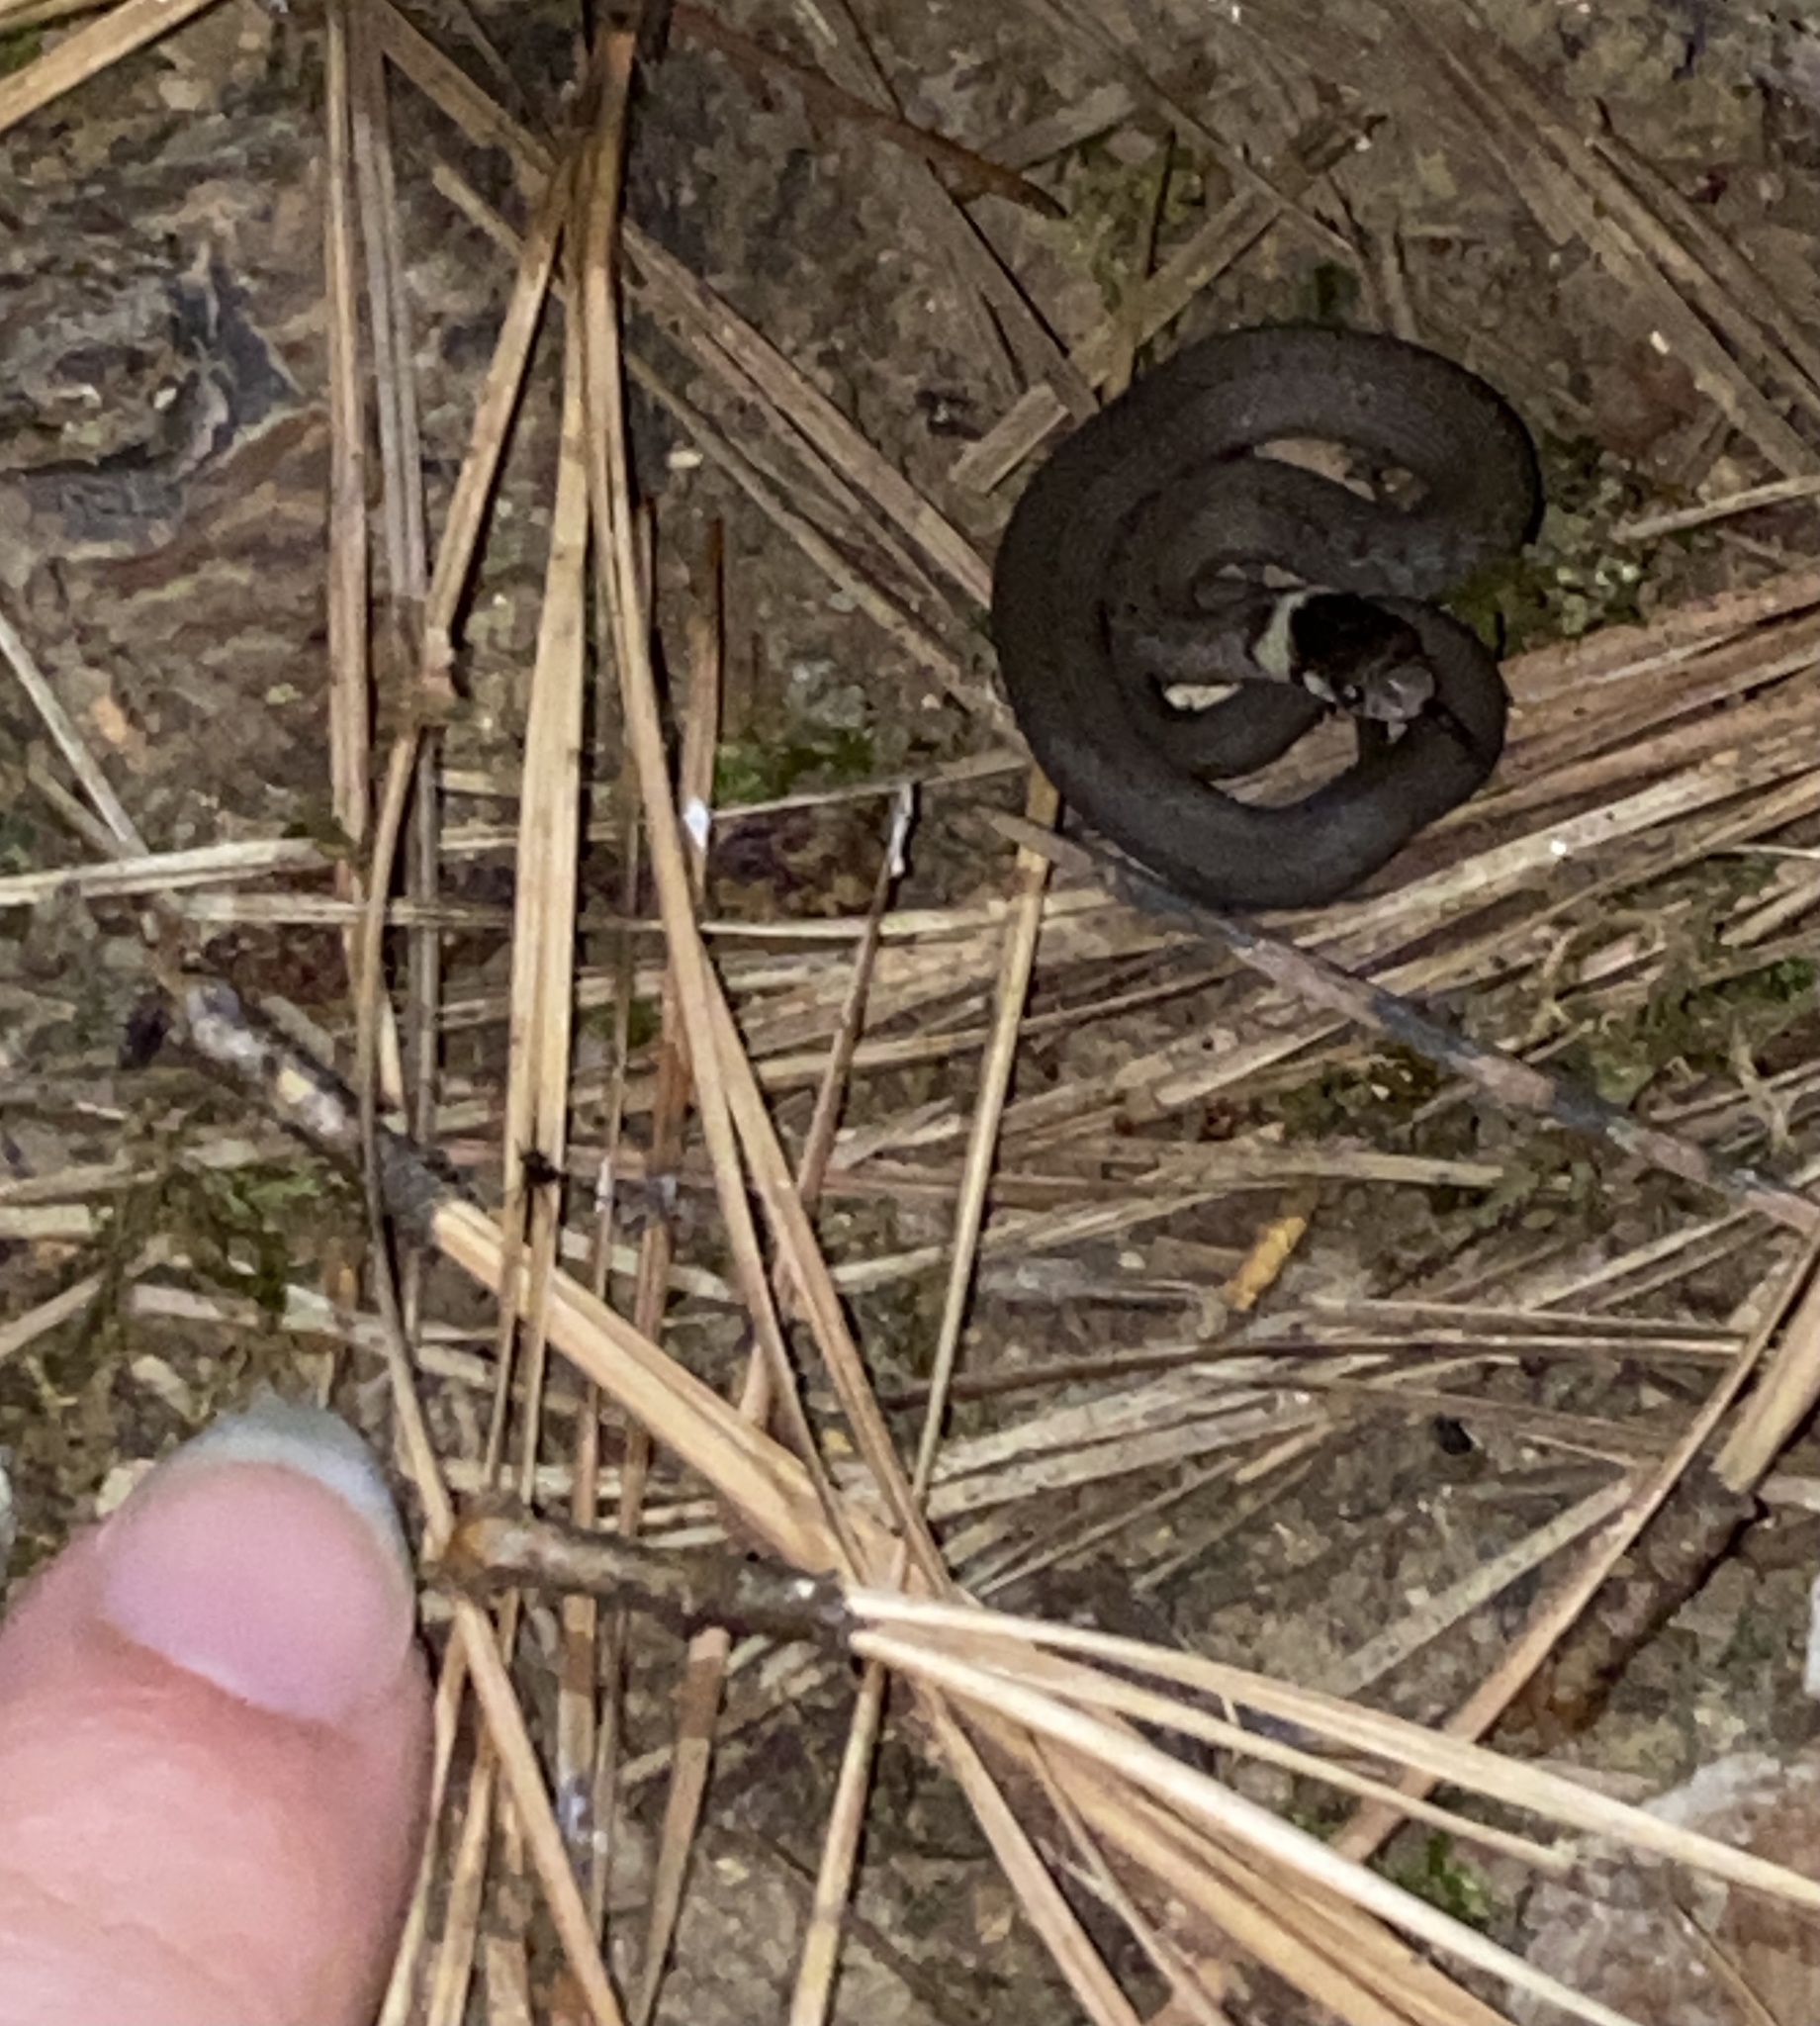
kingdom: Animalia
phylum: Chordata
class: Squamata
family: Colubridae
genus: Storeria
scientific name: Storeria dekayi
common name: (dekay’s) brown snake
